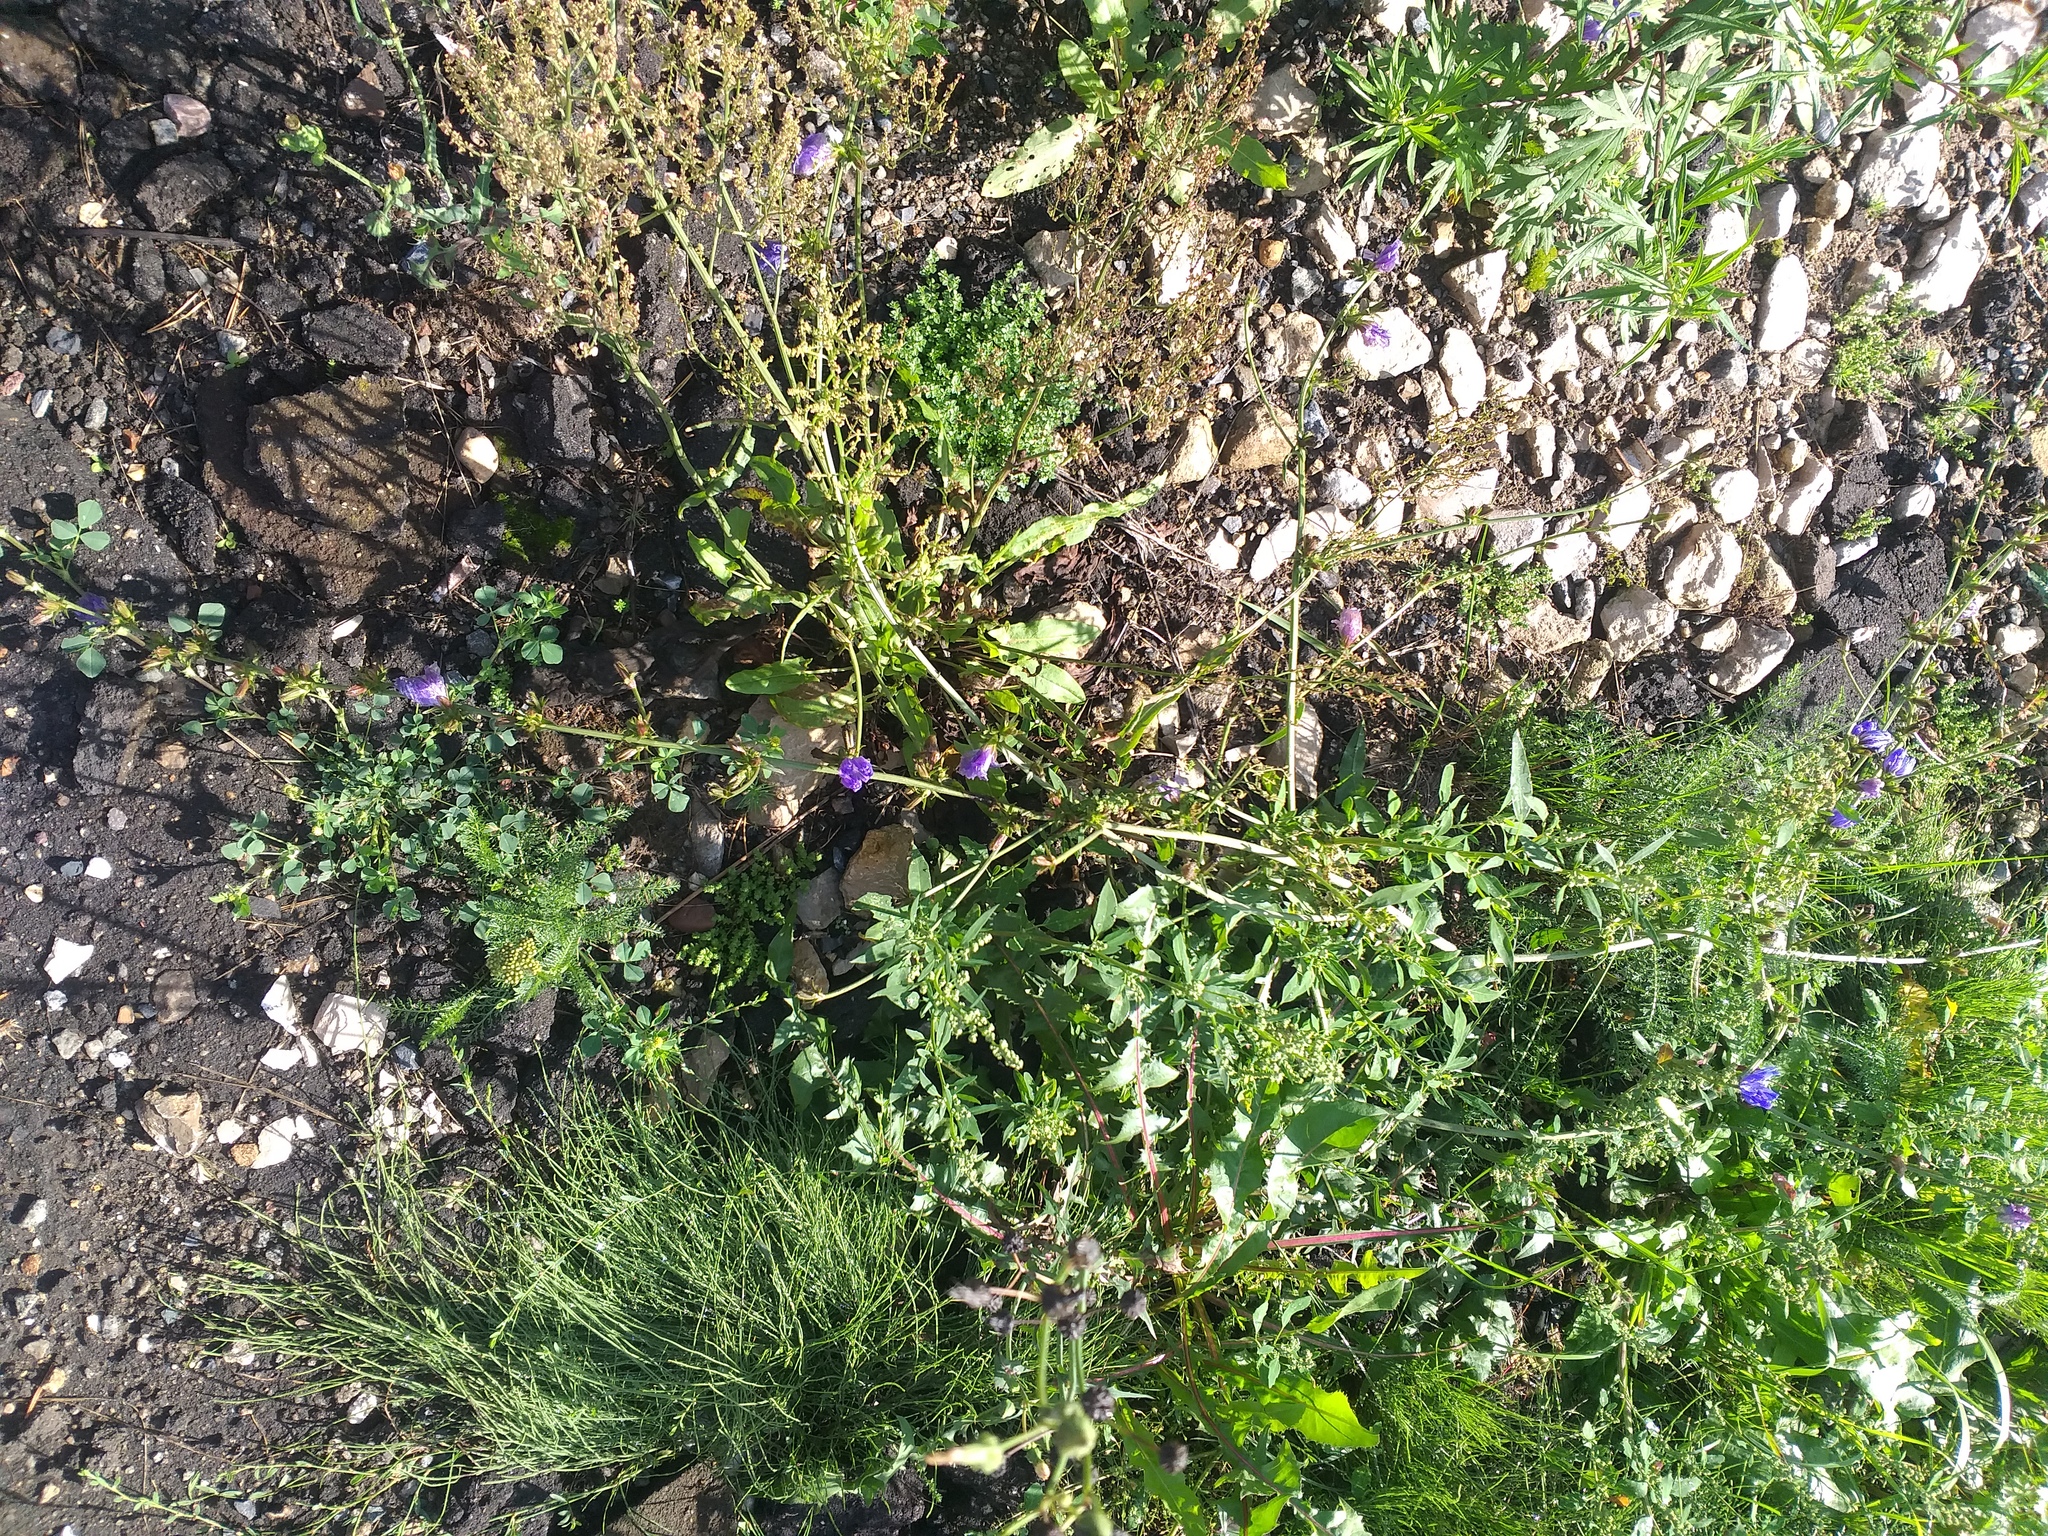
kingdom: Plantae
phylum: Tracheophyta
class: Magnoliopsida
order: Asterales
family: Asteraceae
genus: Cichorium
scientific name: Cichorium intybus
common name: Chicory
